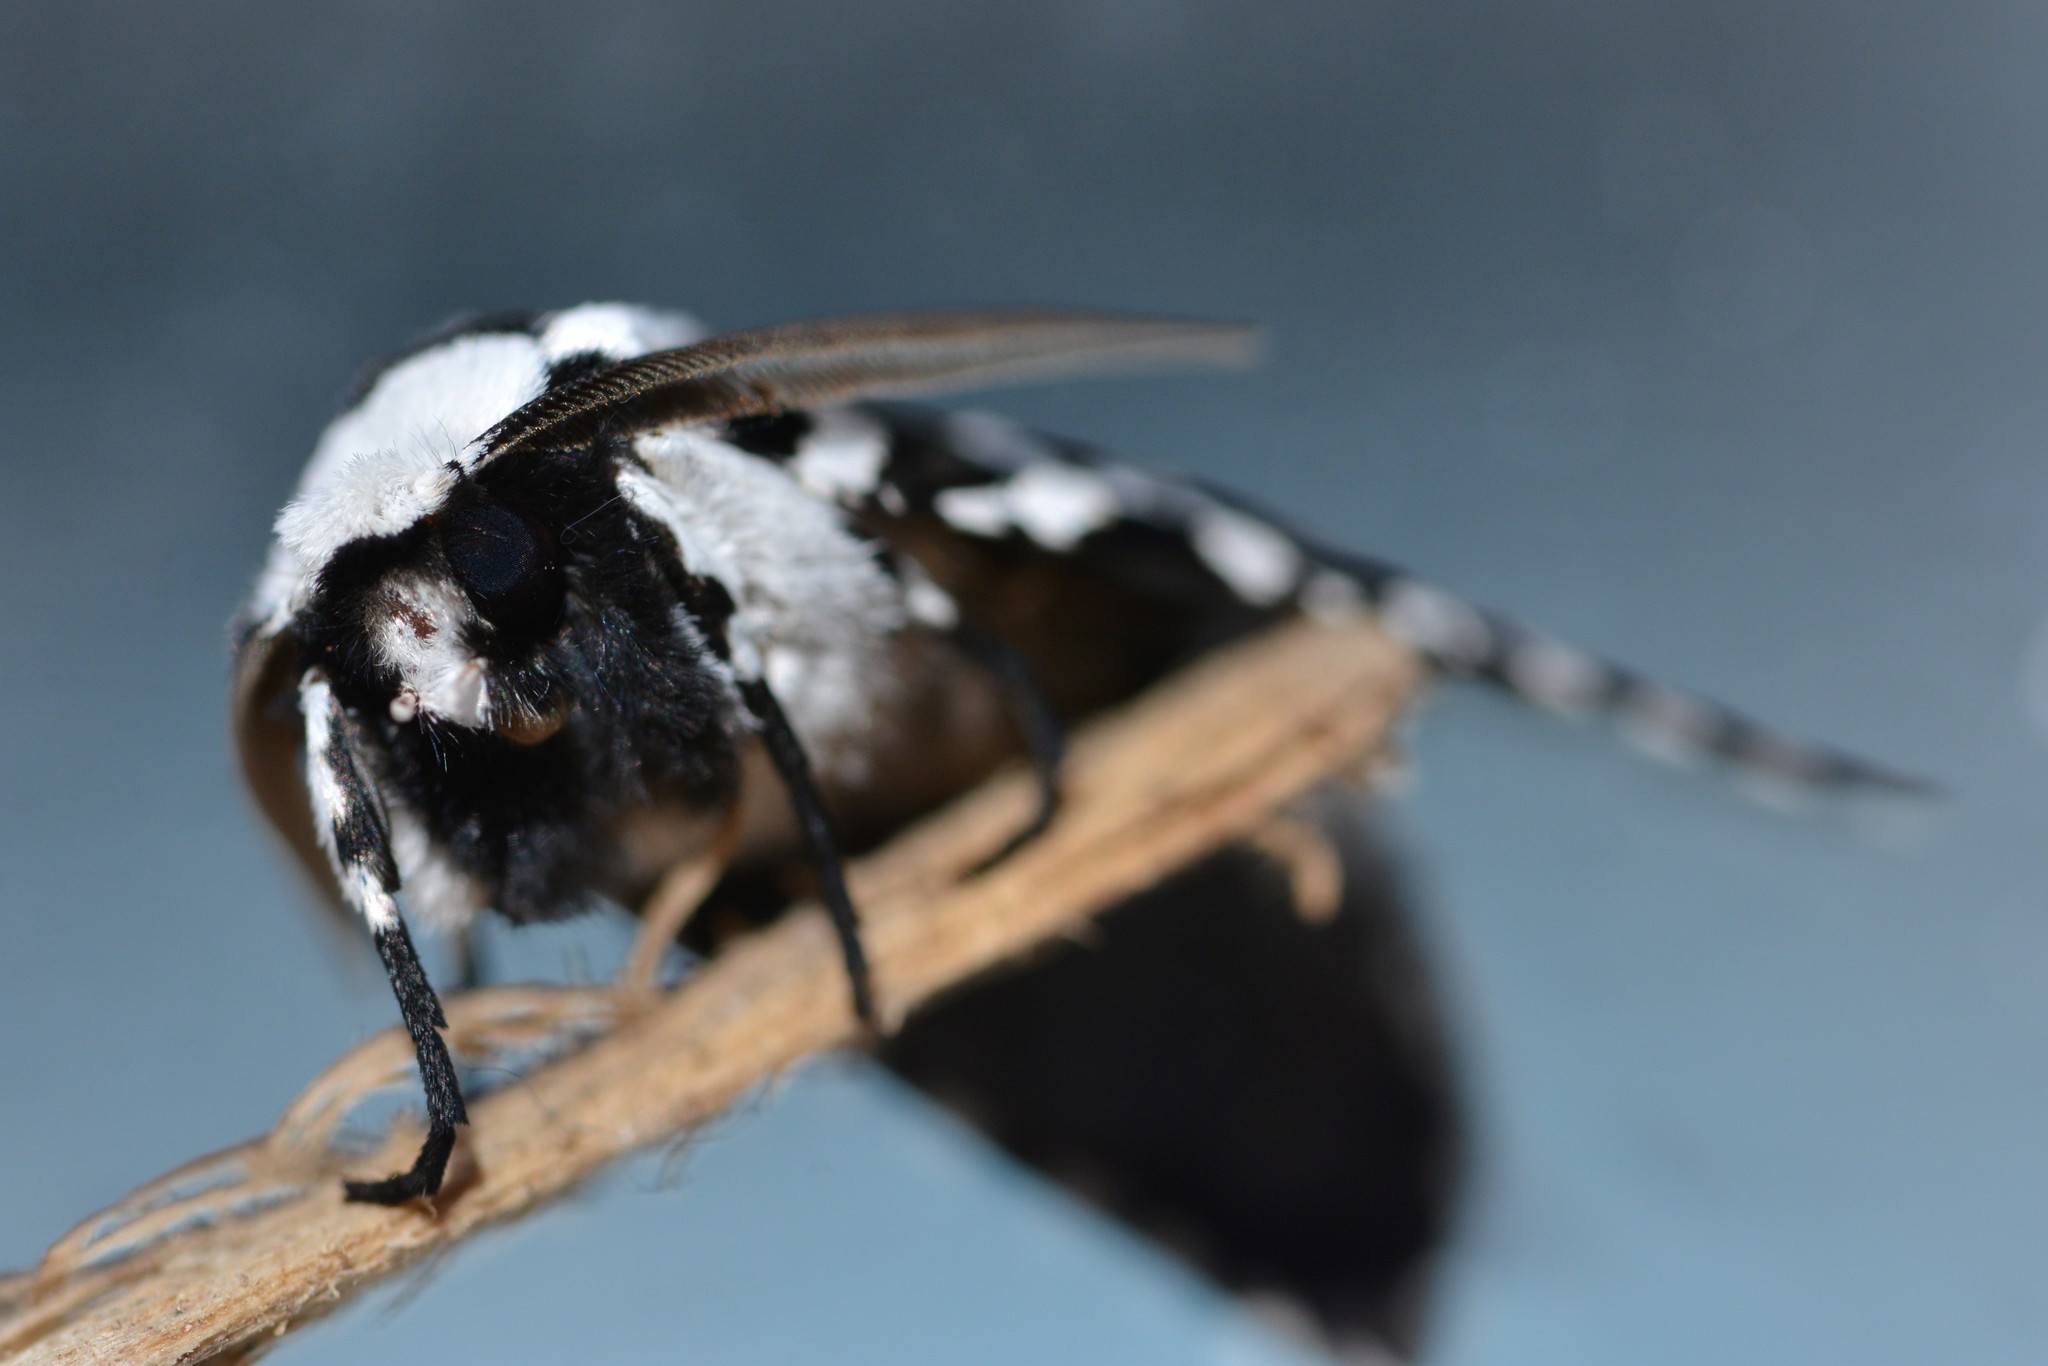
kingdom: Animalia
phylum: Arthropoda
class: Insecta
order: Lepidoptera
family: Geometridae
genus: Declana
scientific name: Declana
